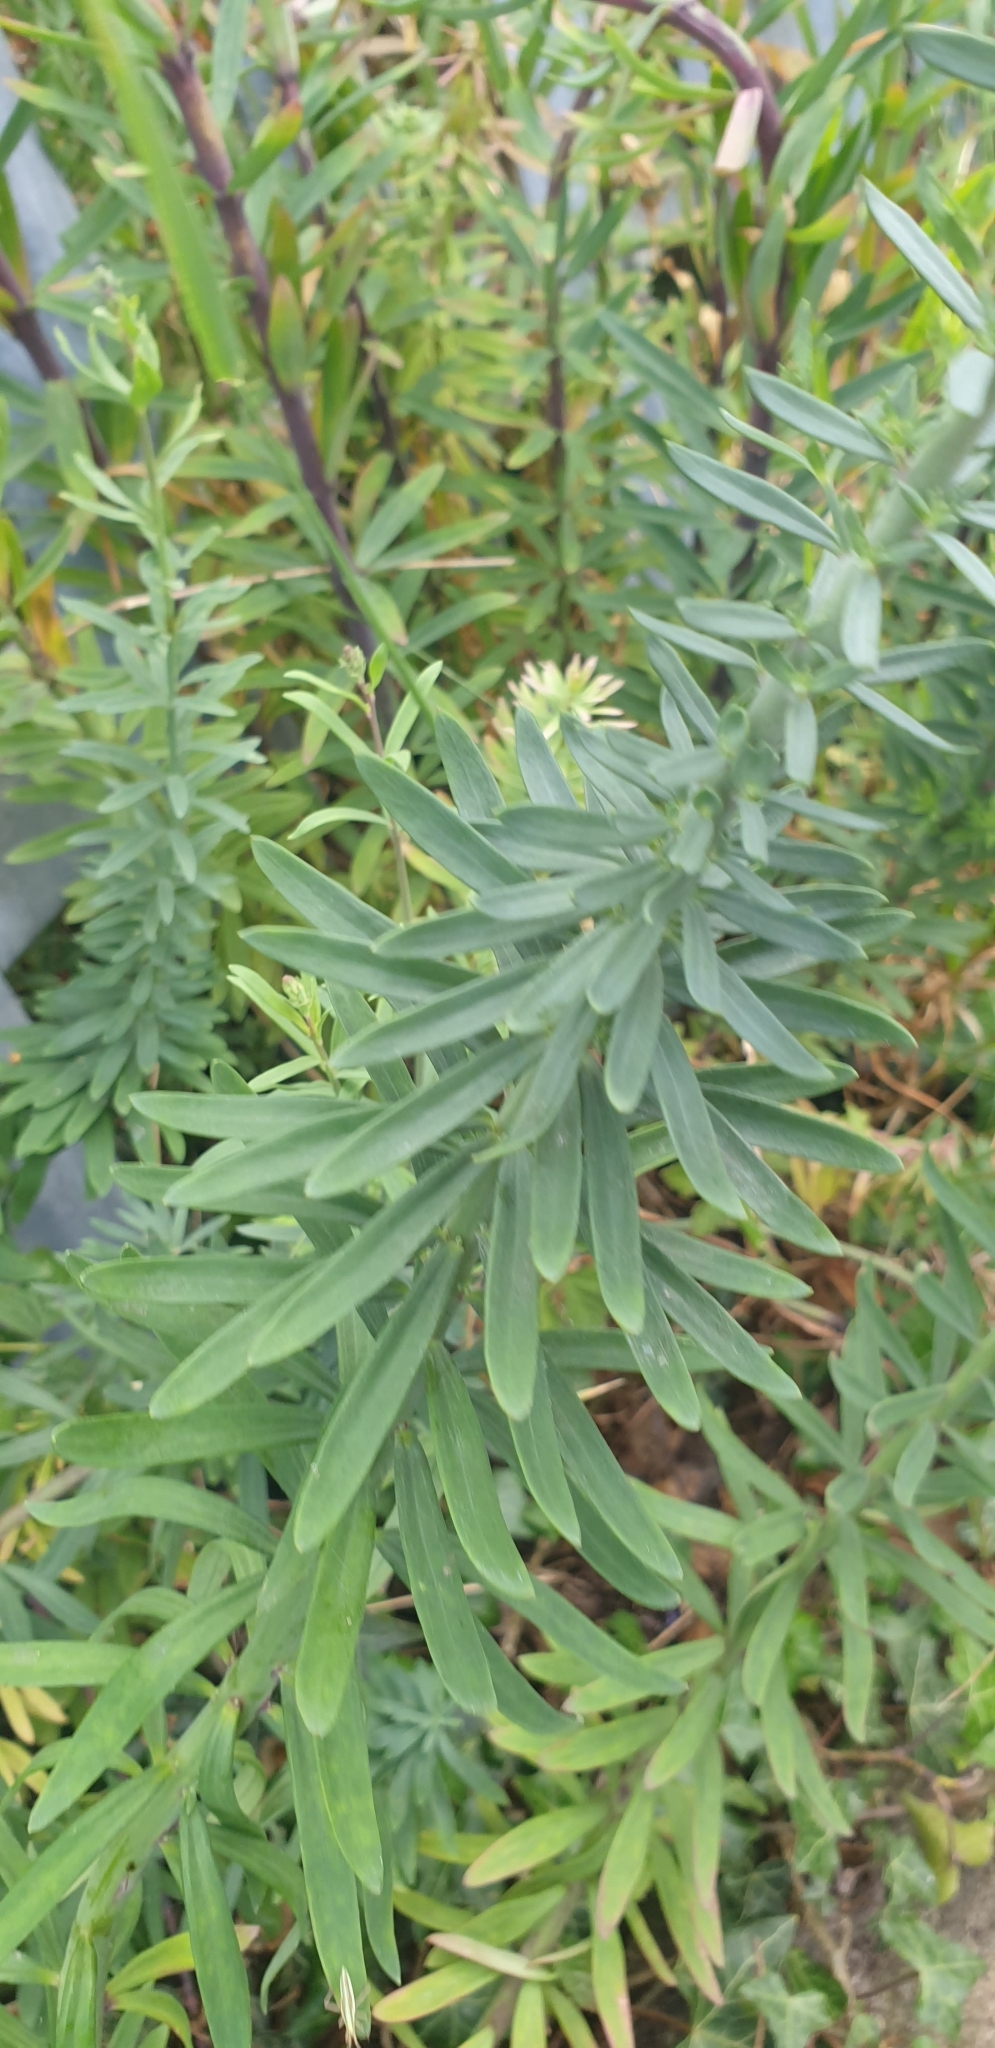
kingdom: Plantae
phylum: Tracheophyta
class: Magnoliopsida
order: Lamiales
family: Plantaginaceae
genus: Linaria
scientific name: Linaria purpurea
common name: Purple toadflax
